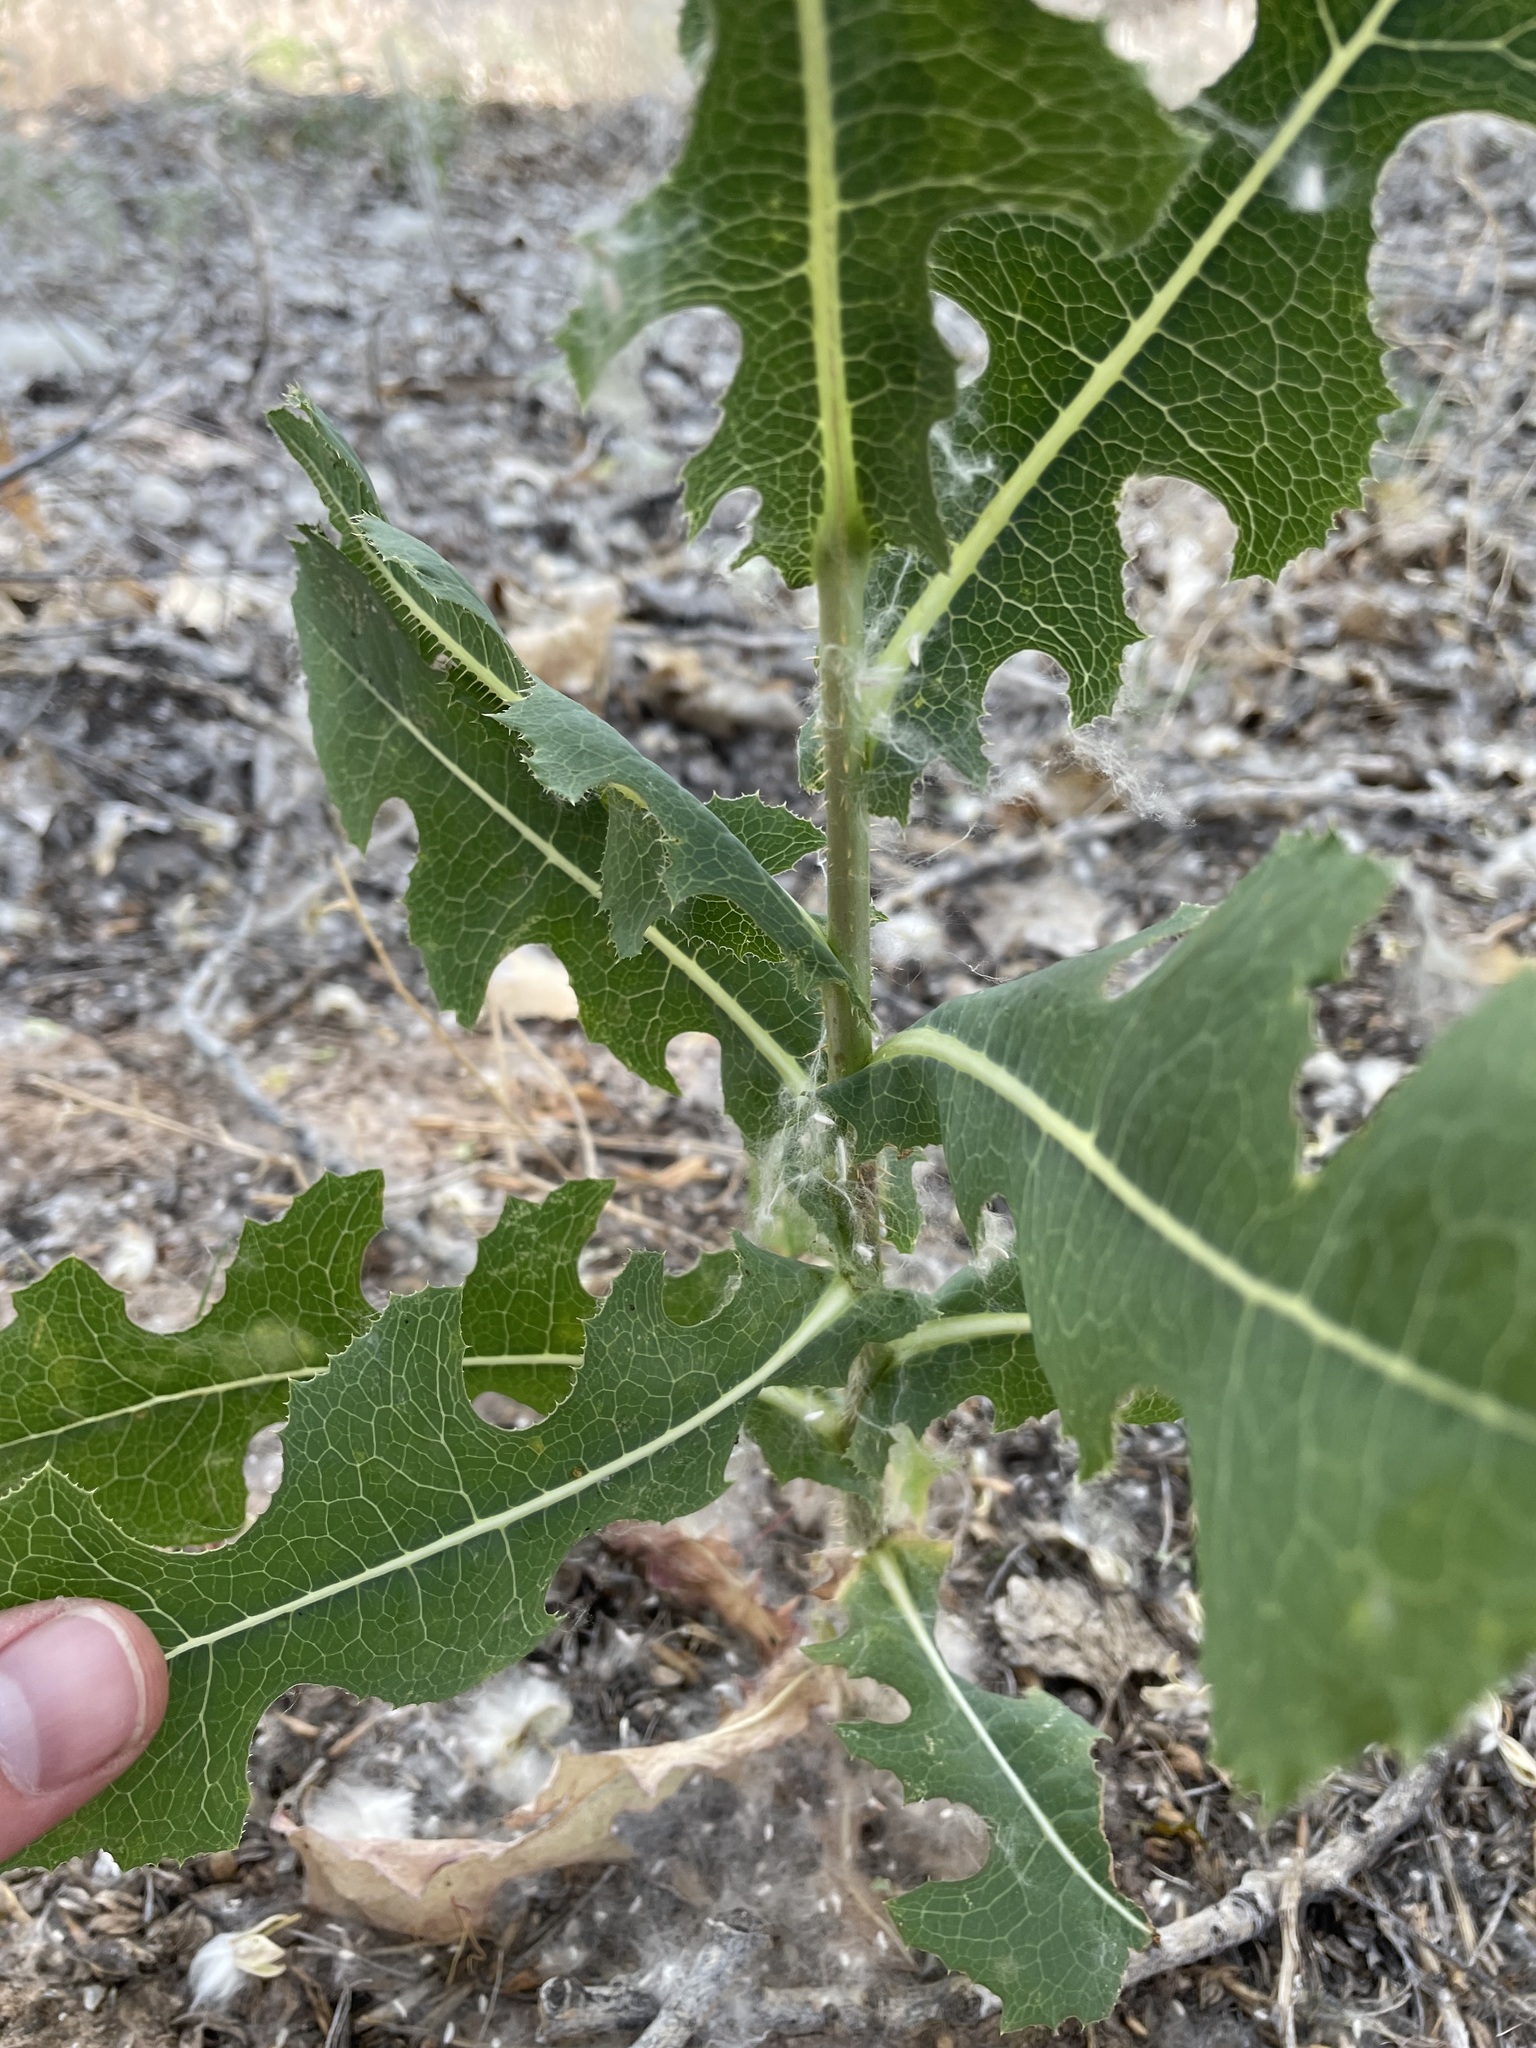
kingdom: Plantae
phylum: Tracheophyta
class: Magnoliopsida
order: Asterales
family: Asteraceae
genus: Lactuca
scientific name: Lactuca serriola
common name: Prickly lettuce
